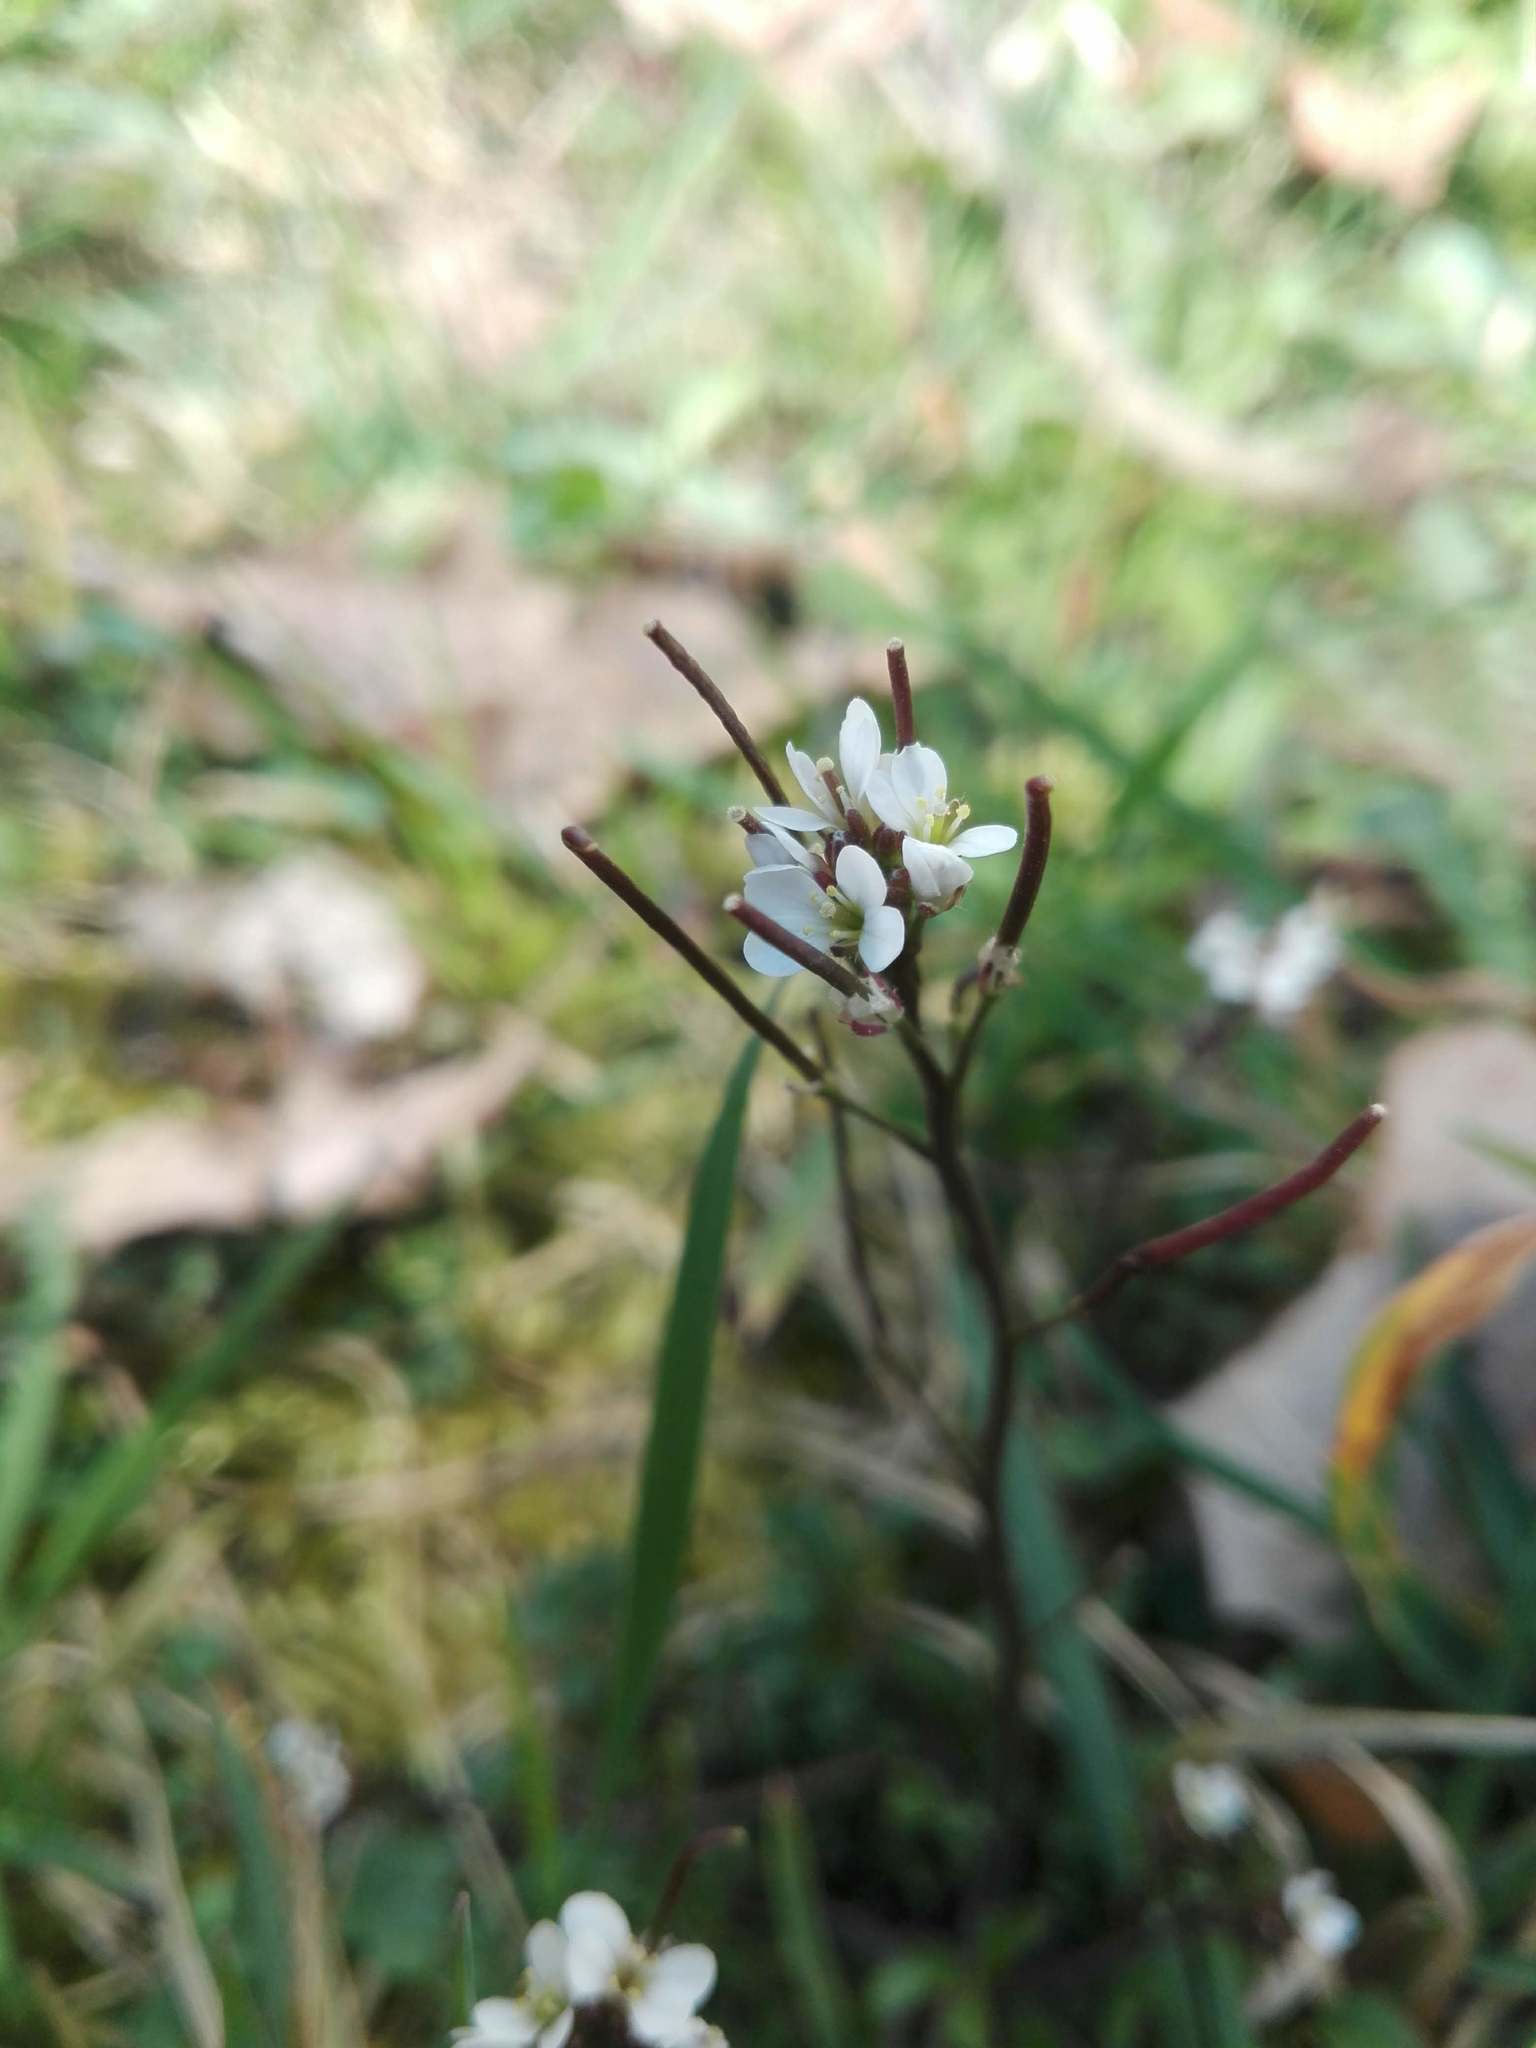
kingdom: Plantae
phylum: Tracheophyta
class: Magnoliopsida
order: Brassicales
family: Brassicaceae
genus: Cardamine
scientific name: Cardamine hirsuta
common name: Hairy bittercress
